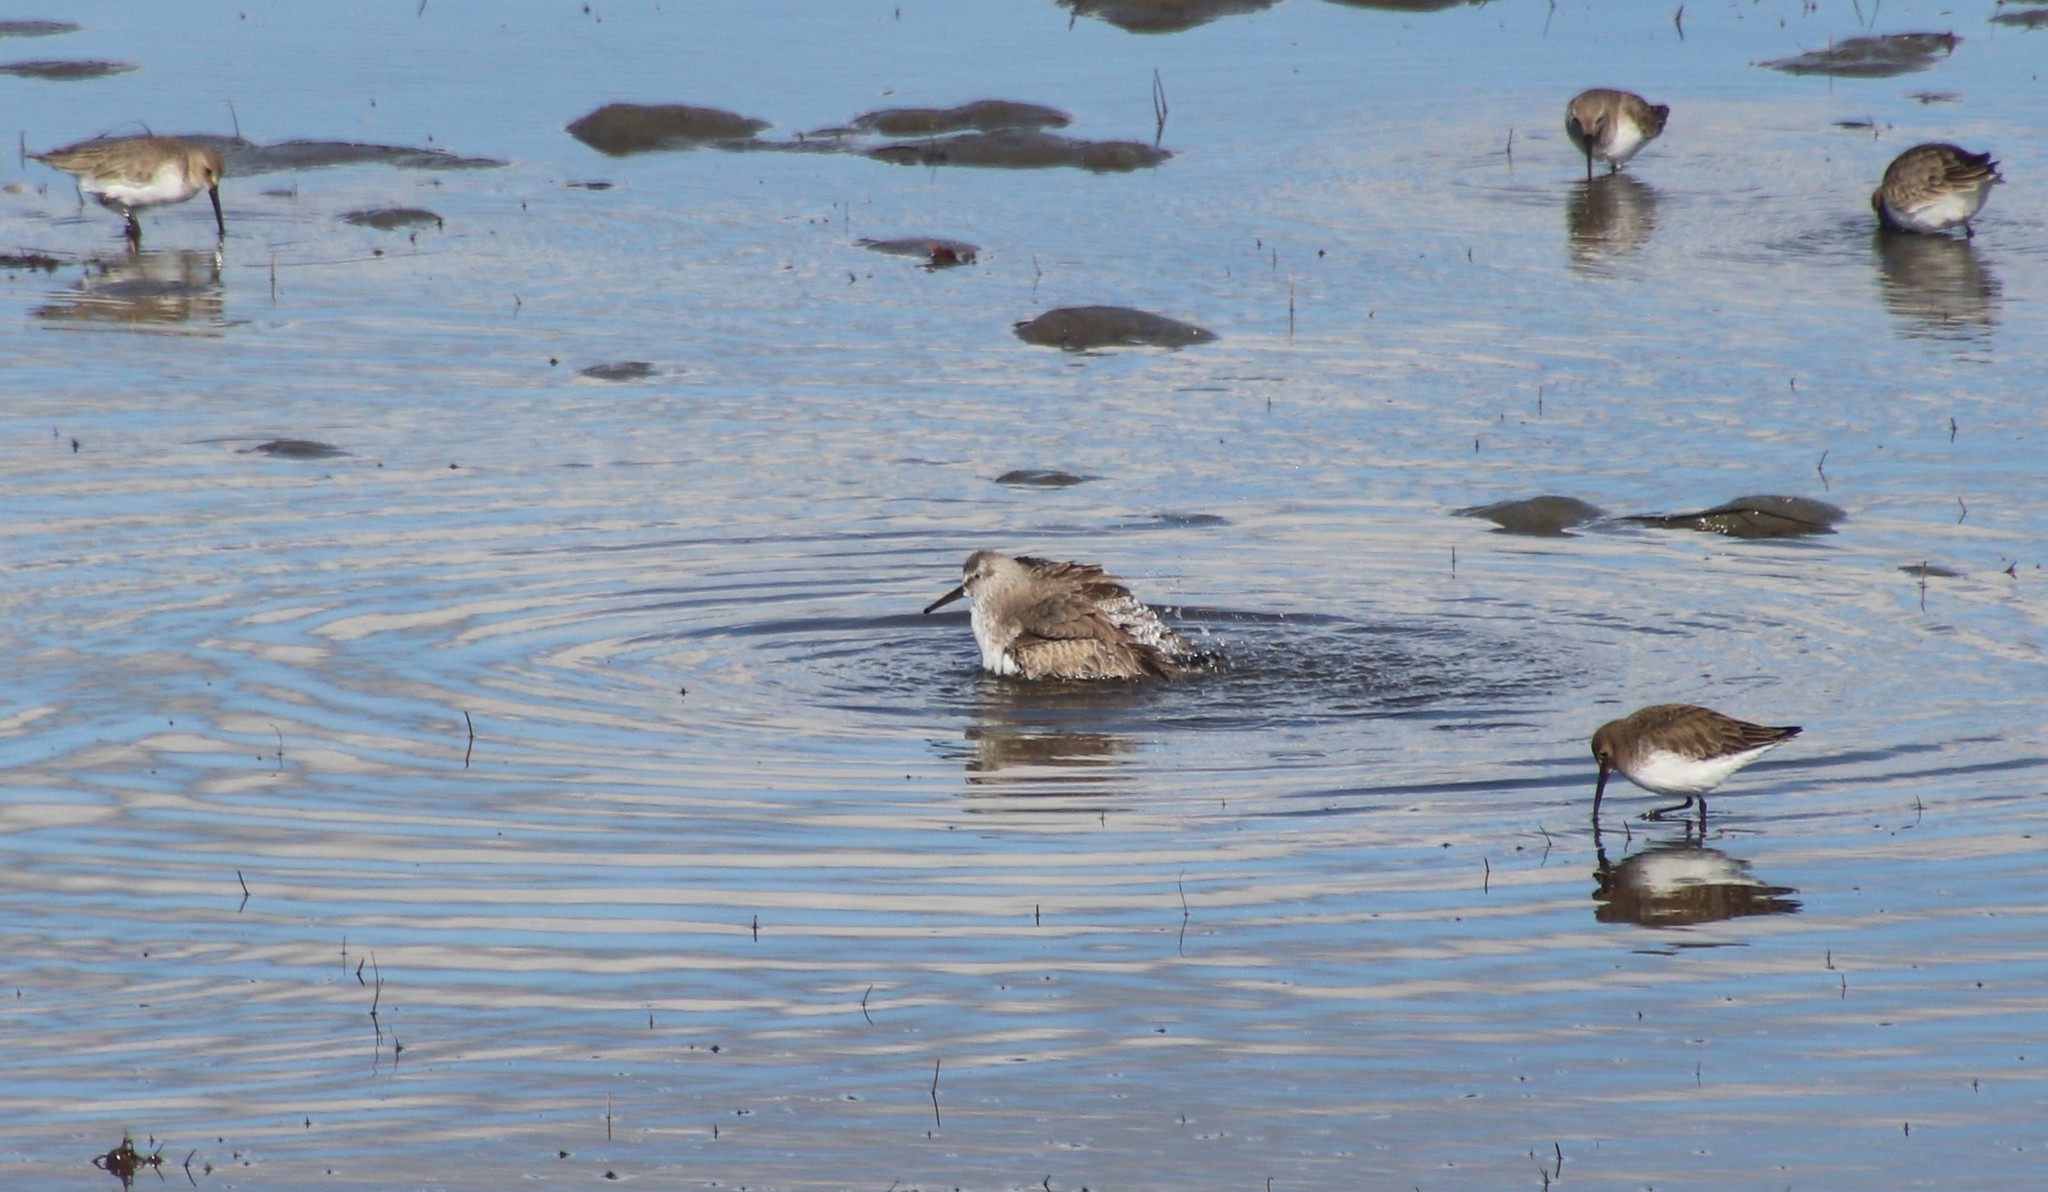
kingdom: Animalia
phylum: Chordata
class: Aves
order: Charadriiformes
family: Scolopacidae
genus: Calidris
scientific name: Calidris canutus
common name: Red knot
